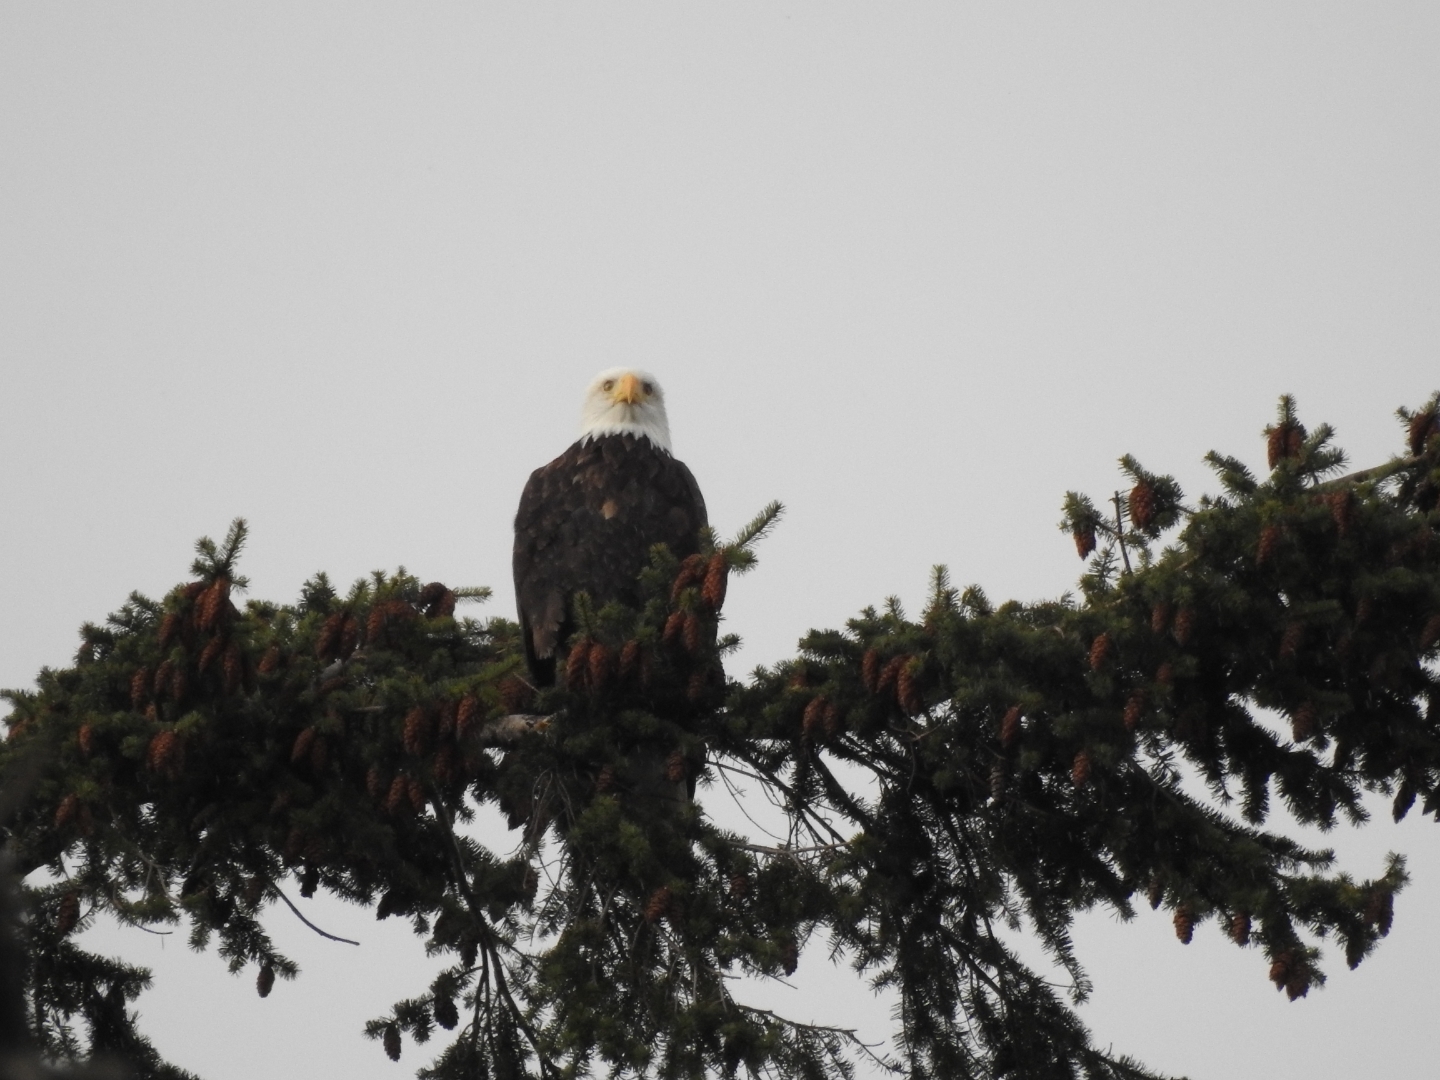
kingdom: Animalia
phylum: Chordata
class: Aves
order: Accipitriformes
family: Accipitridae
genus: Haliaeetus
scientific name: Haliaeetus leucocephalus
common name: Bald eagle
